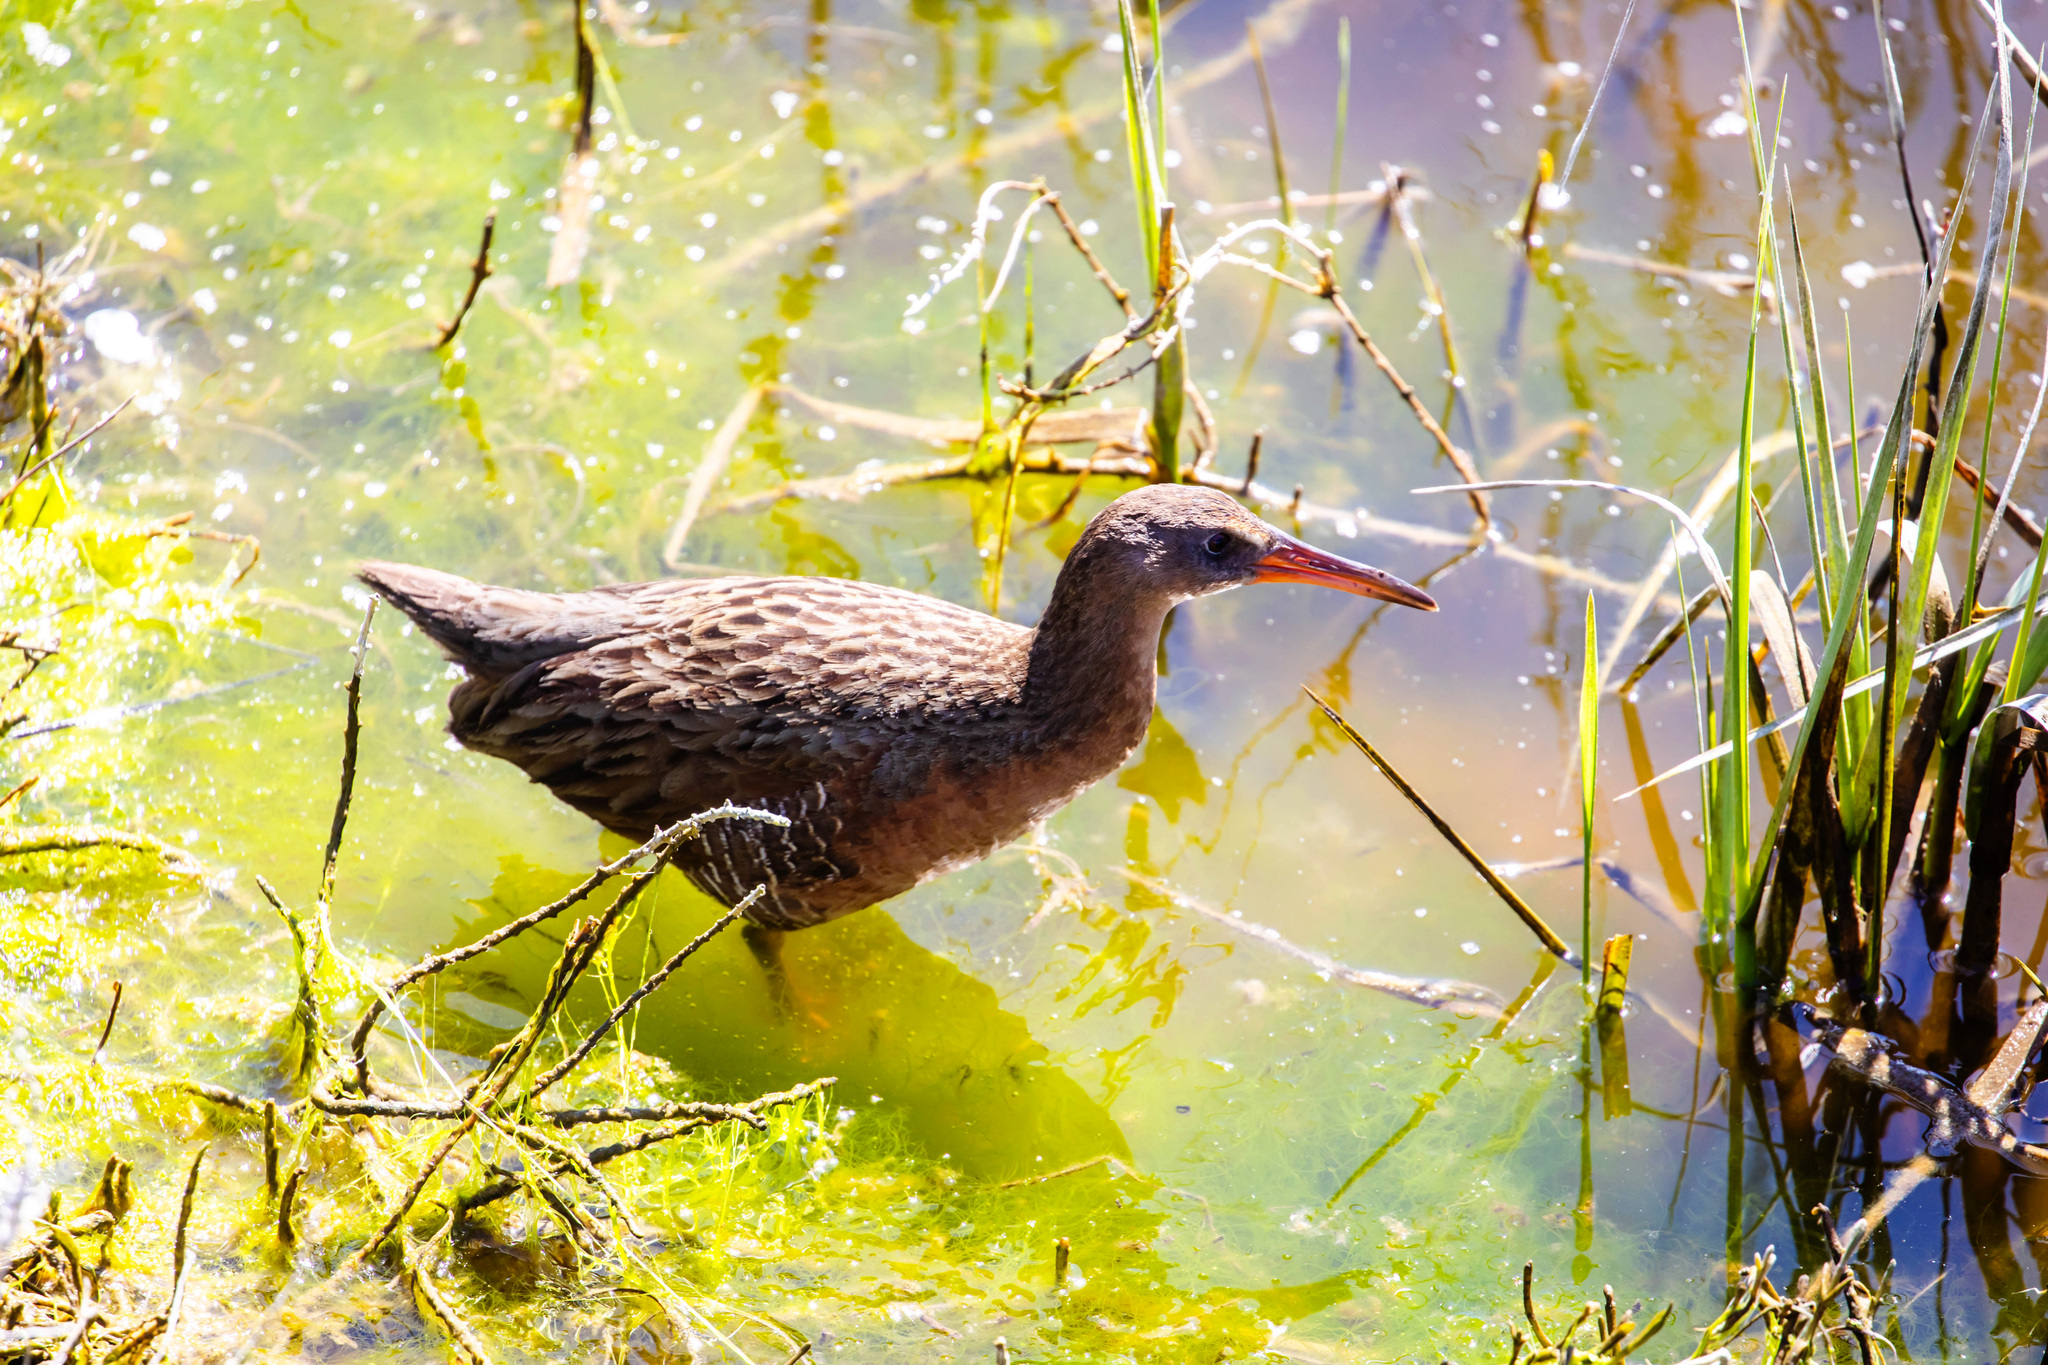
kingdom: Animalia
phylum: Chordata
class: Aves
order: Gruiformes
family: Rallidae
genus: Rallus
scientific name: Rallus obsoletus
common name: Ridgway's rail
